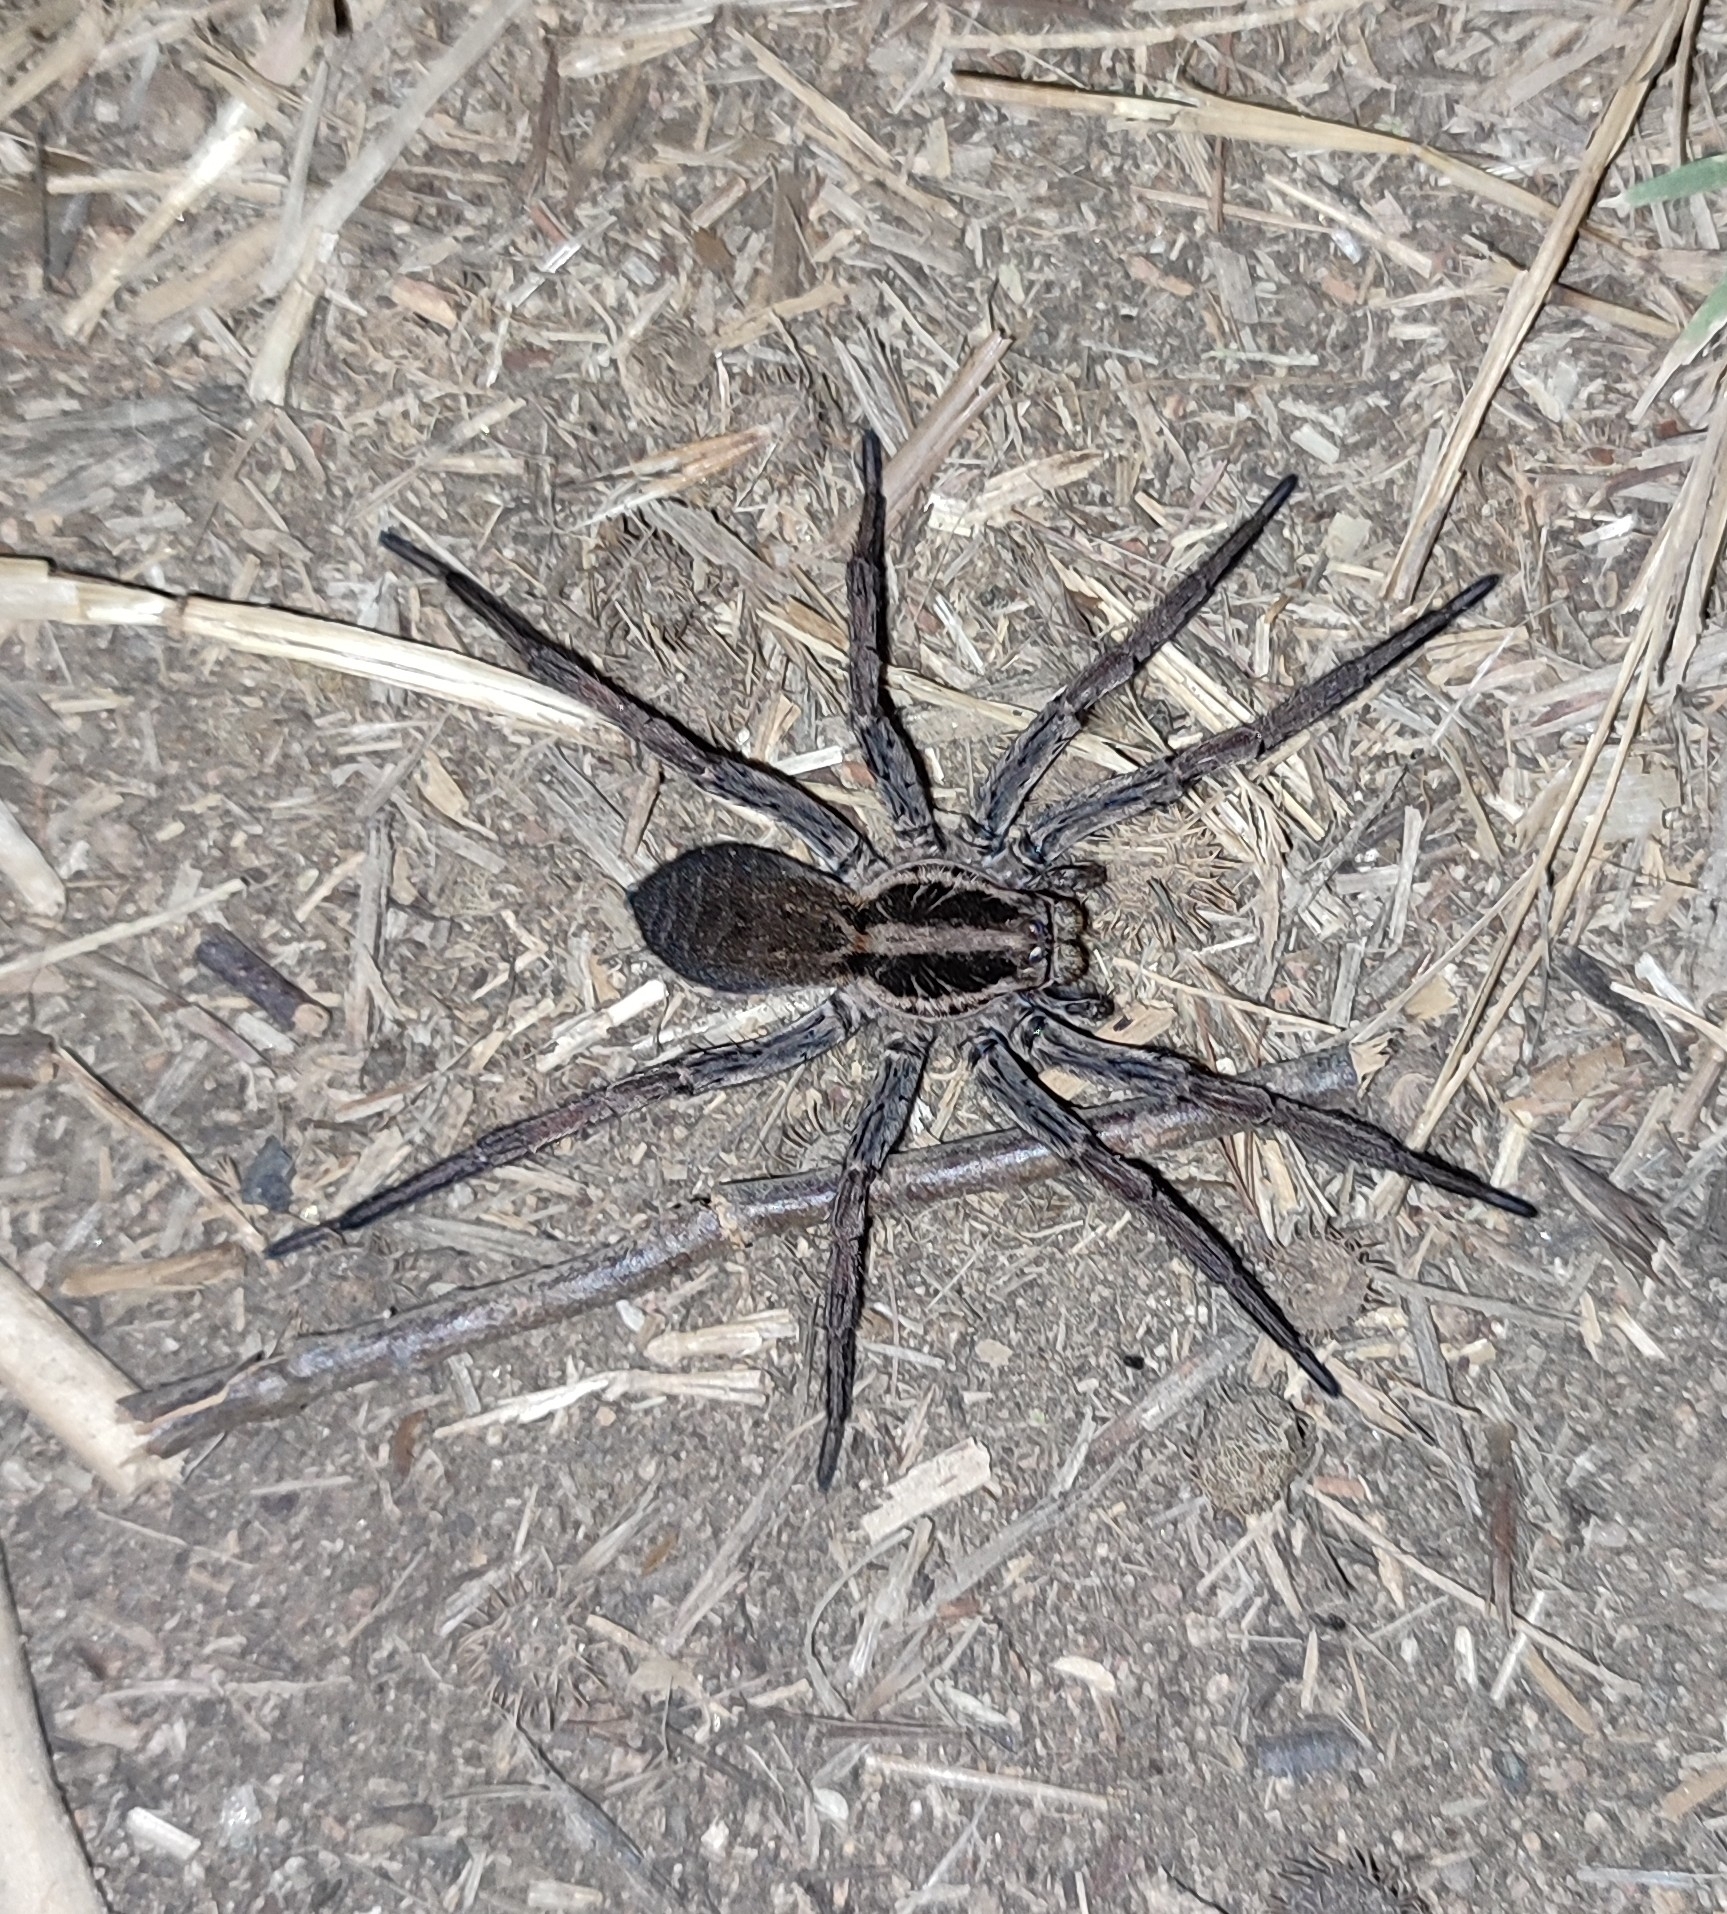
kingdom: Animalia
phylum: Arthropoda
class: Arachnida
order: Araneae
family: Lycosidae
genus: Hogna
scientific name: Hogna radiata
